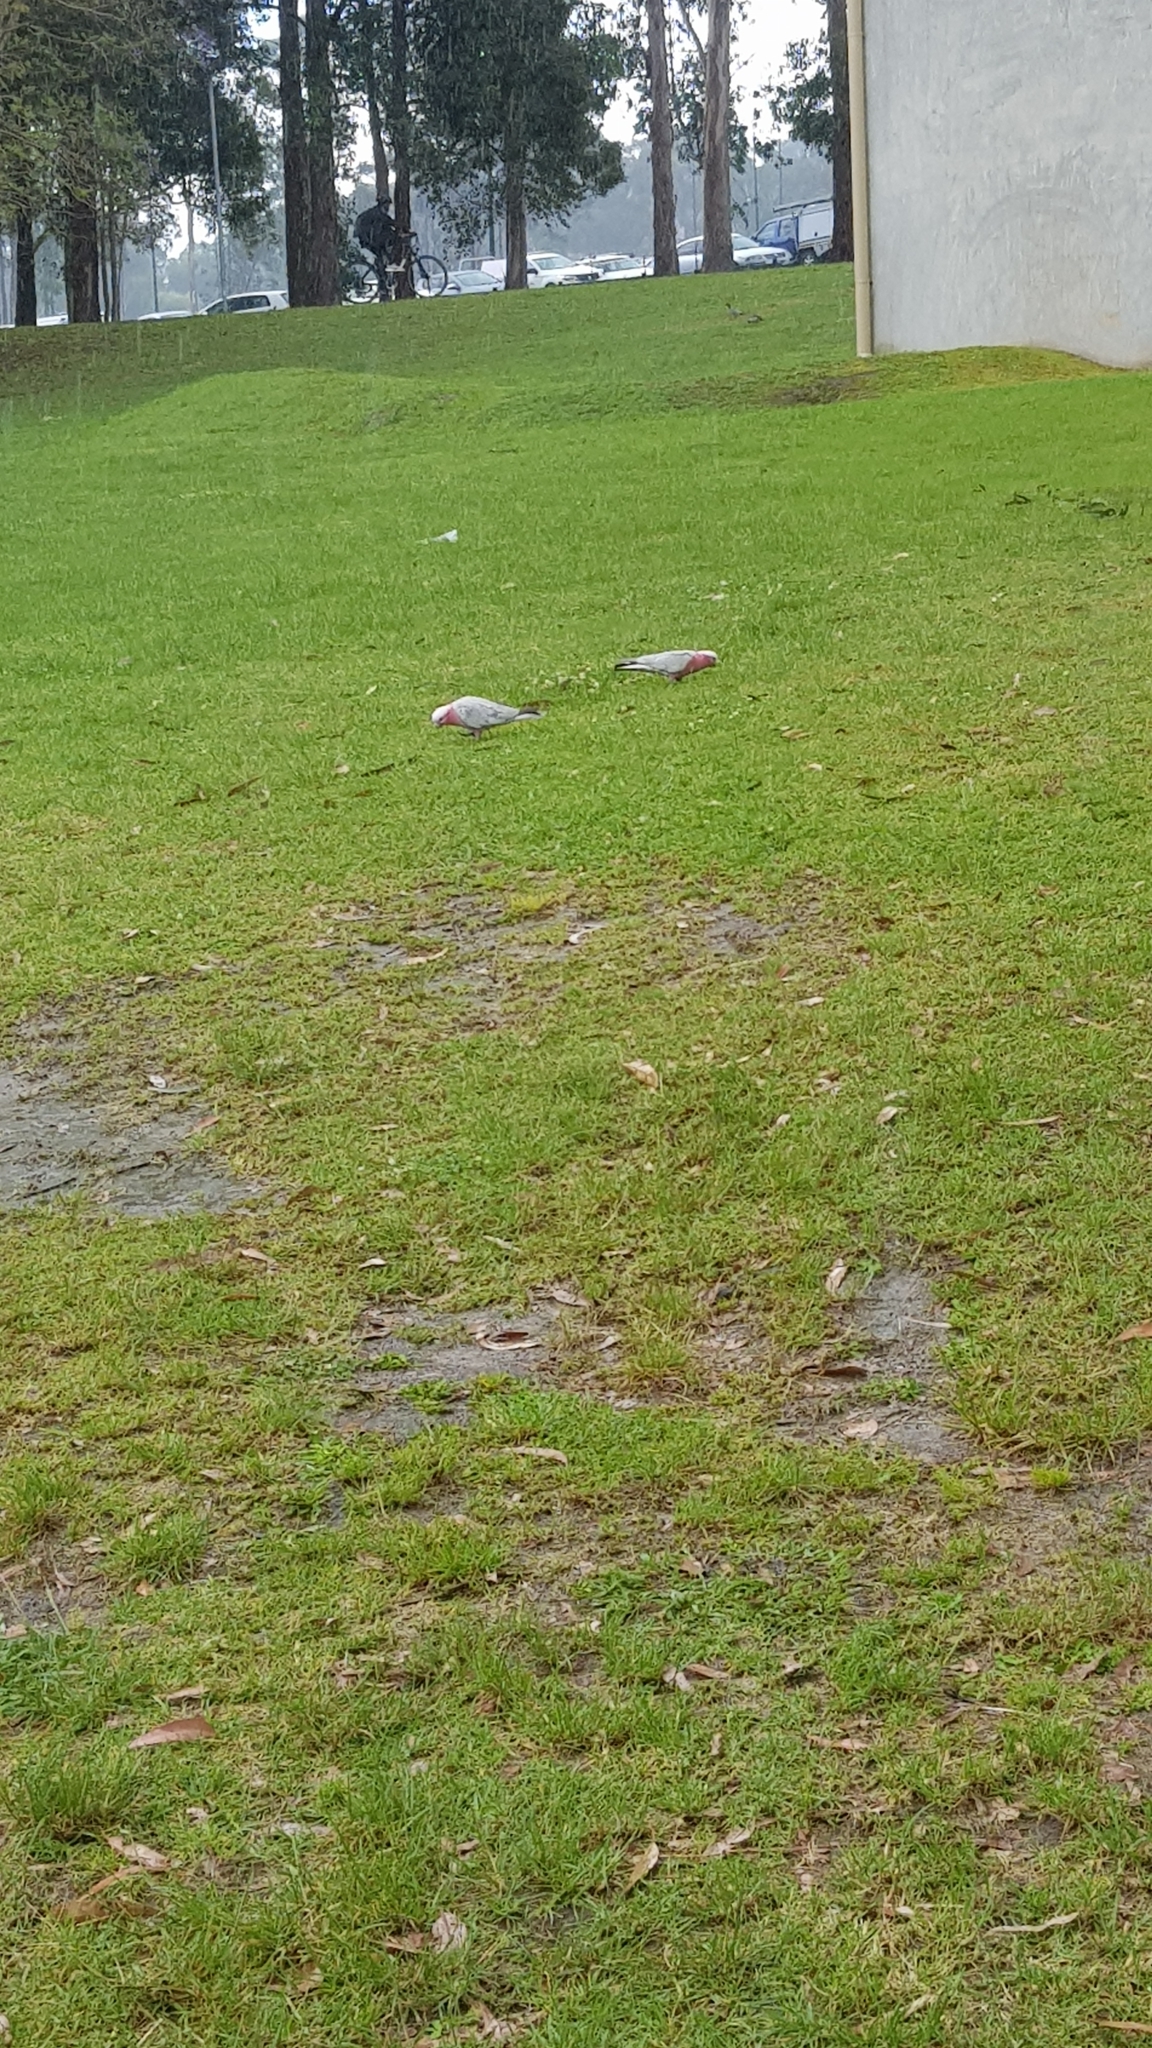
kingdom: Animalia
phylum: Chordata
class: Aves
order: Psittaciformes
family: Psittacidae
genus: Eolophus
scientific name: Eolophus roseicapilla
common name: Galah
